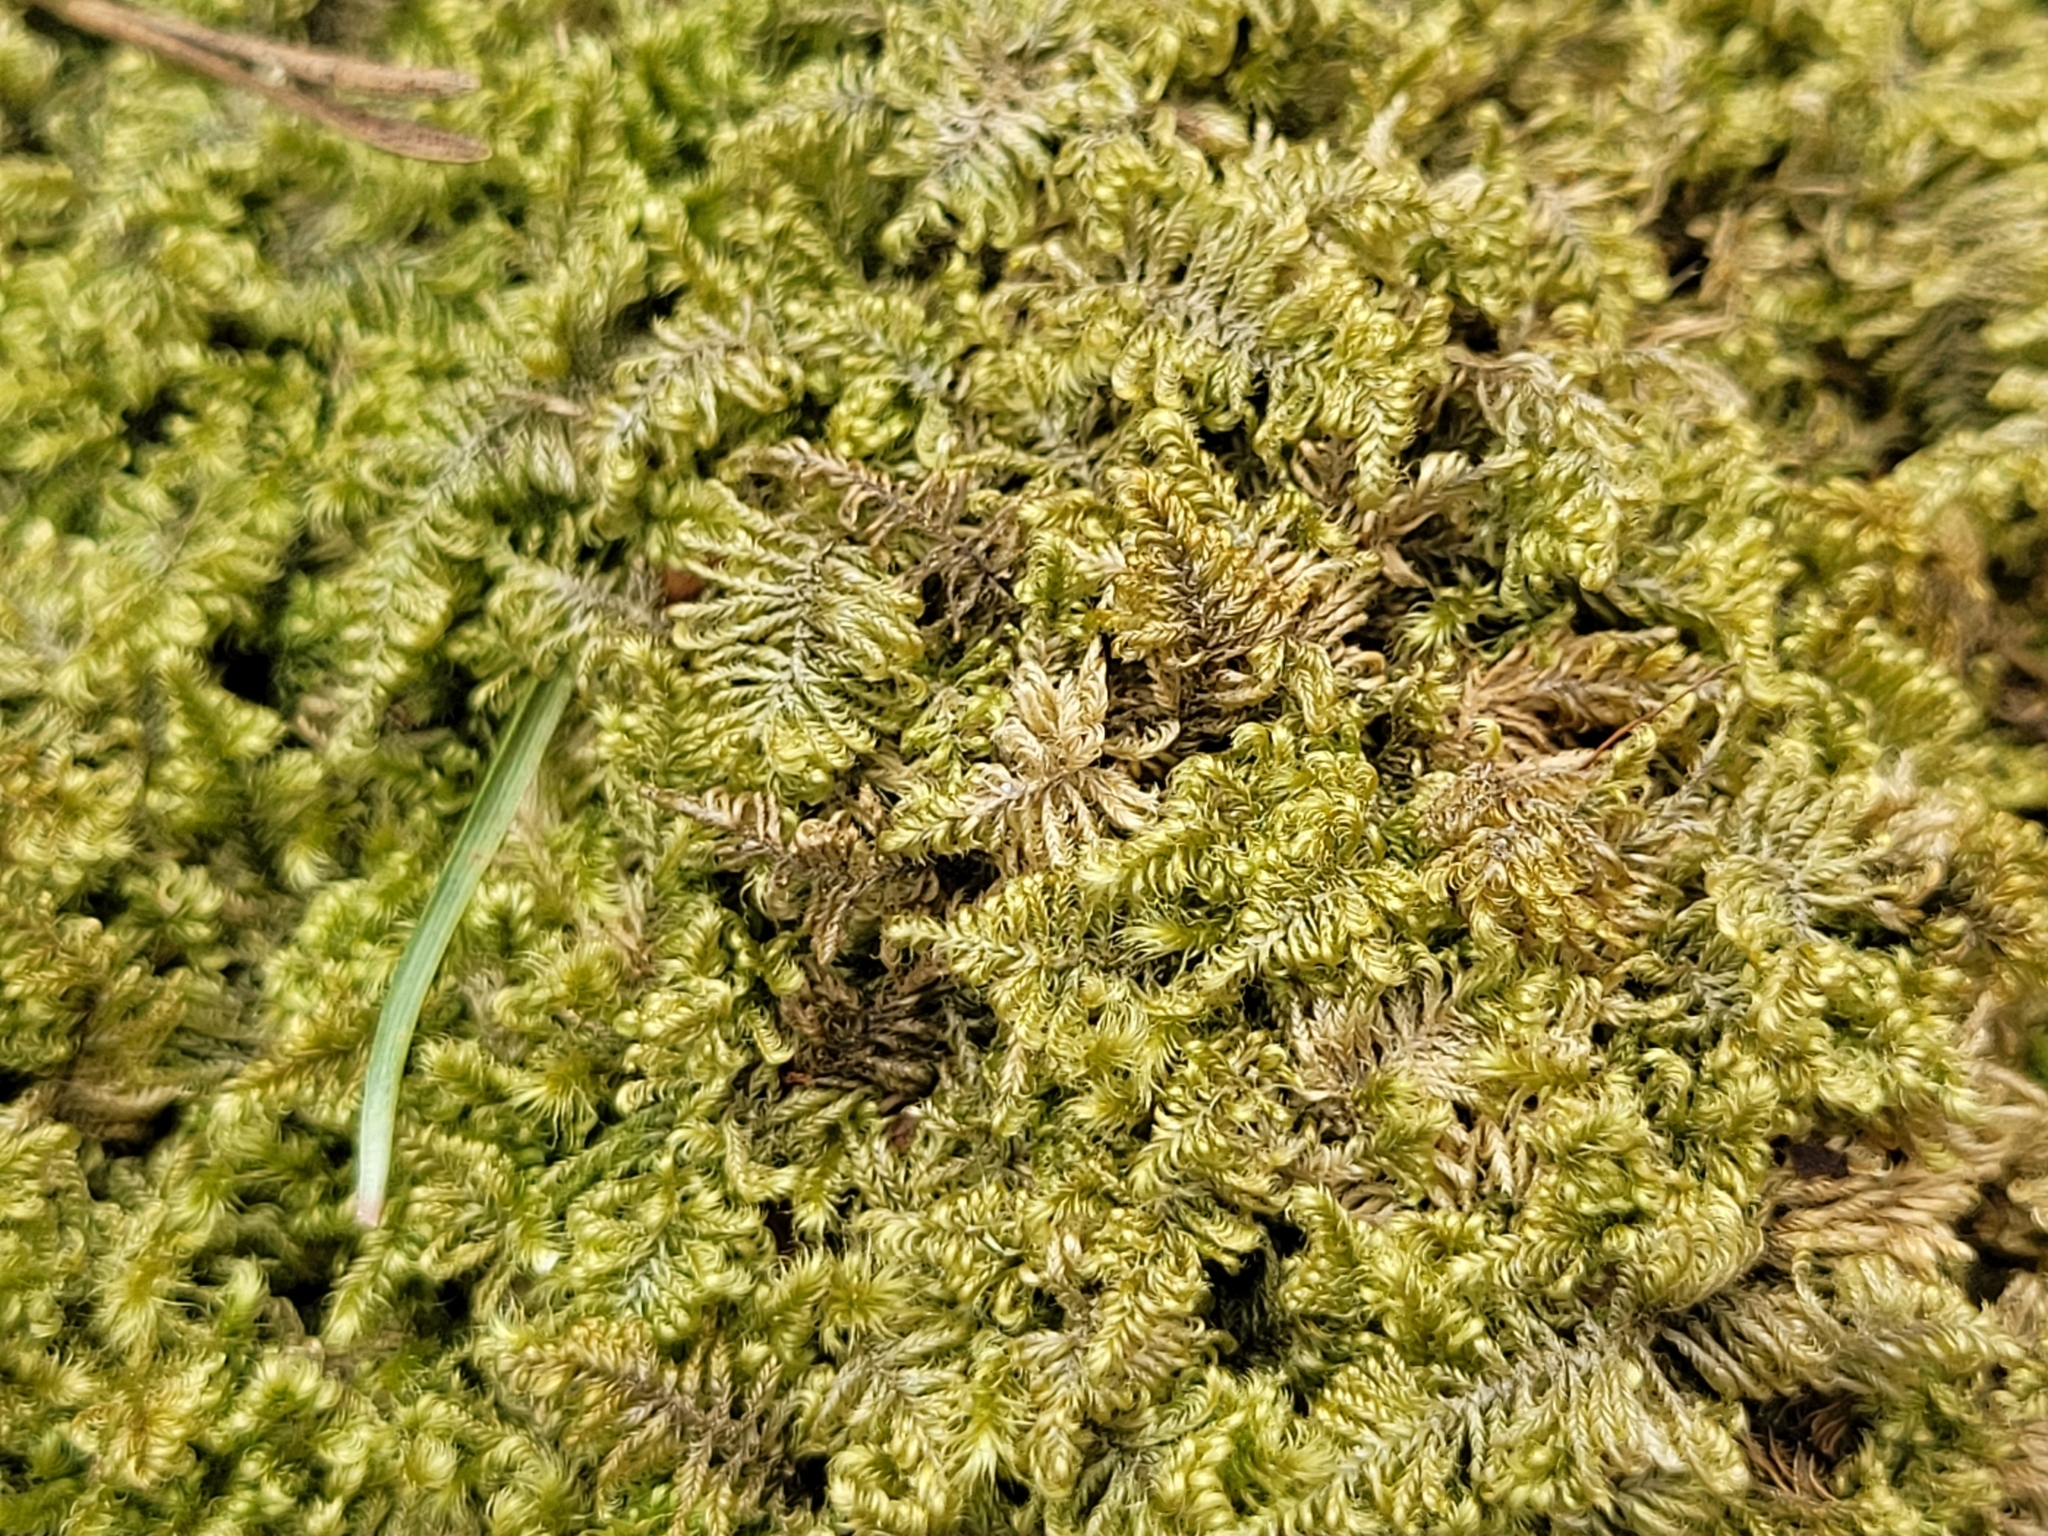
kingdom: Plantae
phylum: Bryophyta
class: Bryopsida
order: Hypnales
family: Myuriaceae
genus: Ctenidium
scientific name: Ctenidium molluscum
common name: Chalk comb-moss
